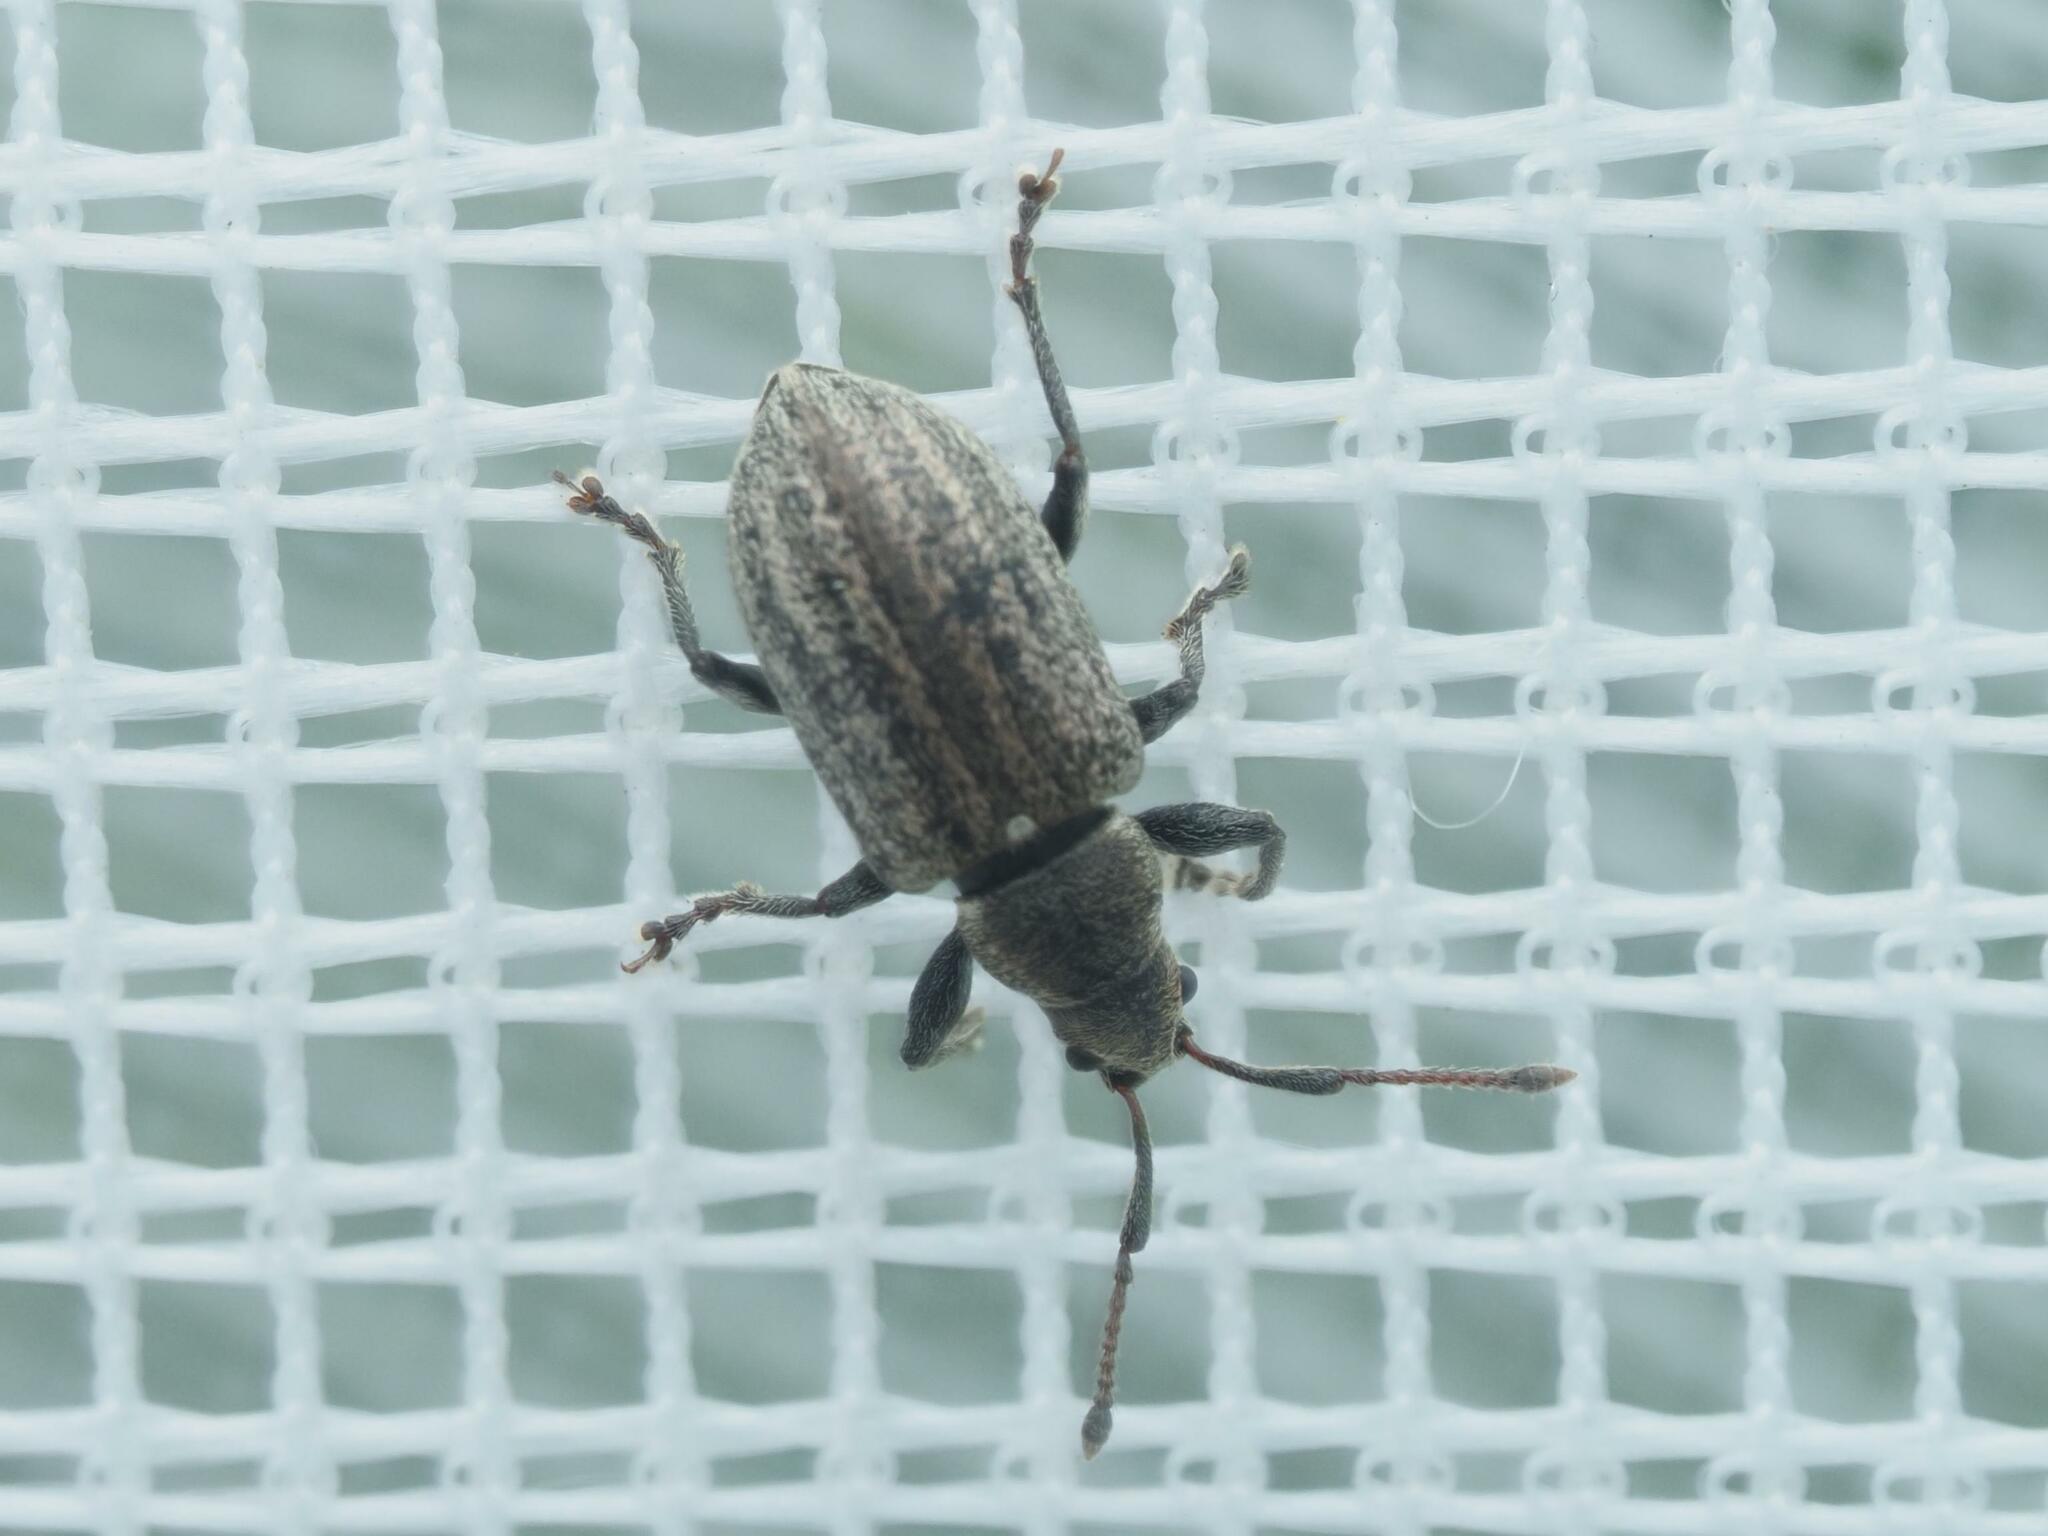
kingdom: Animalia
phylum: Arthropoda
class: Insecta
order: Coleoptera
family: Curculionidae
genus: Phyllobius
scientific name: Phyllobius pyri
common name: Common leaf weevil
